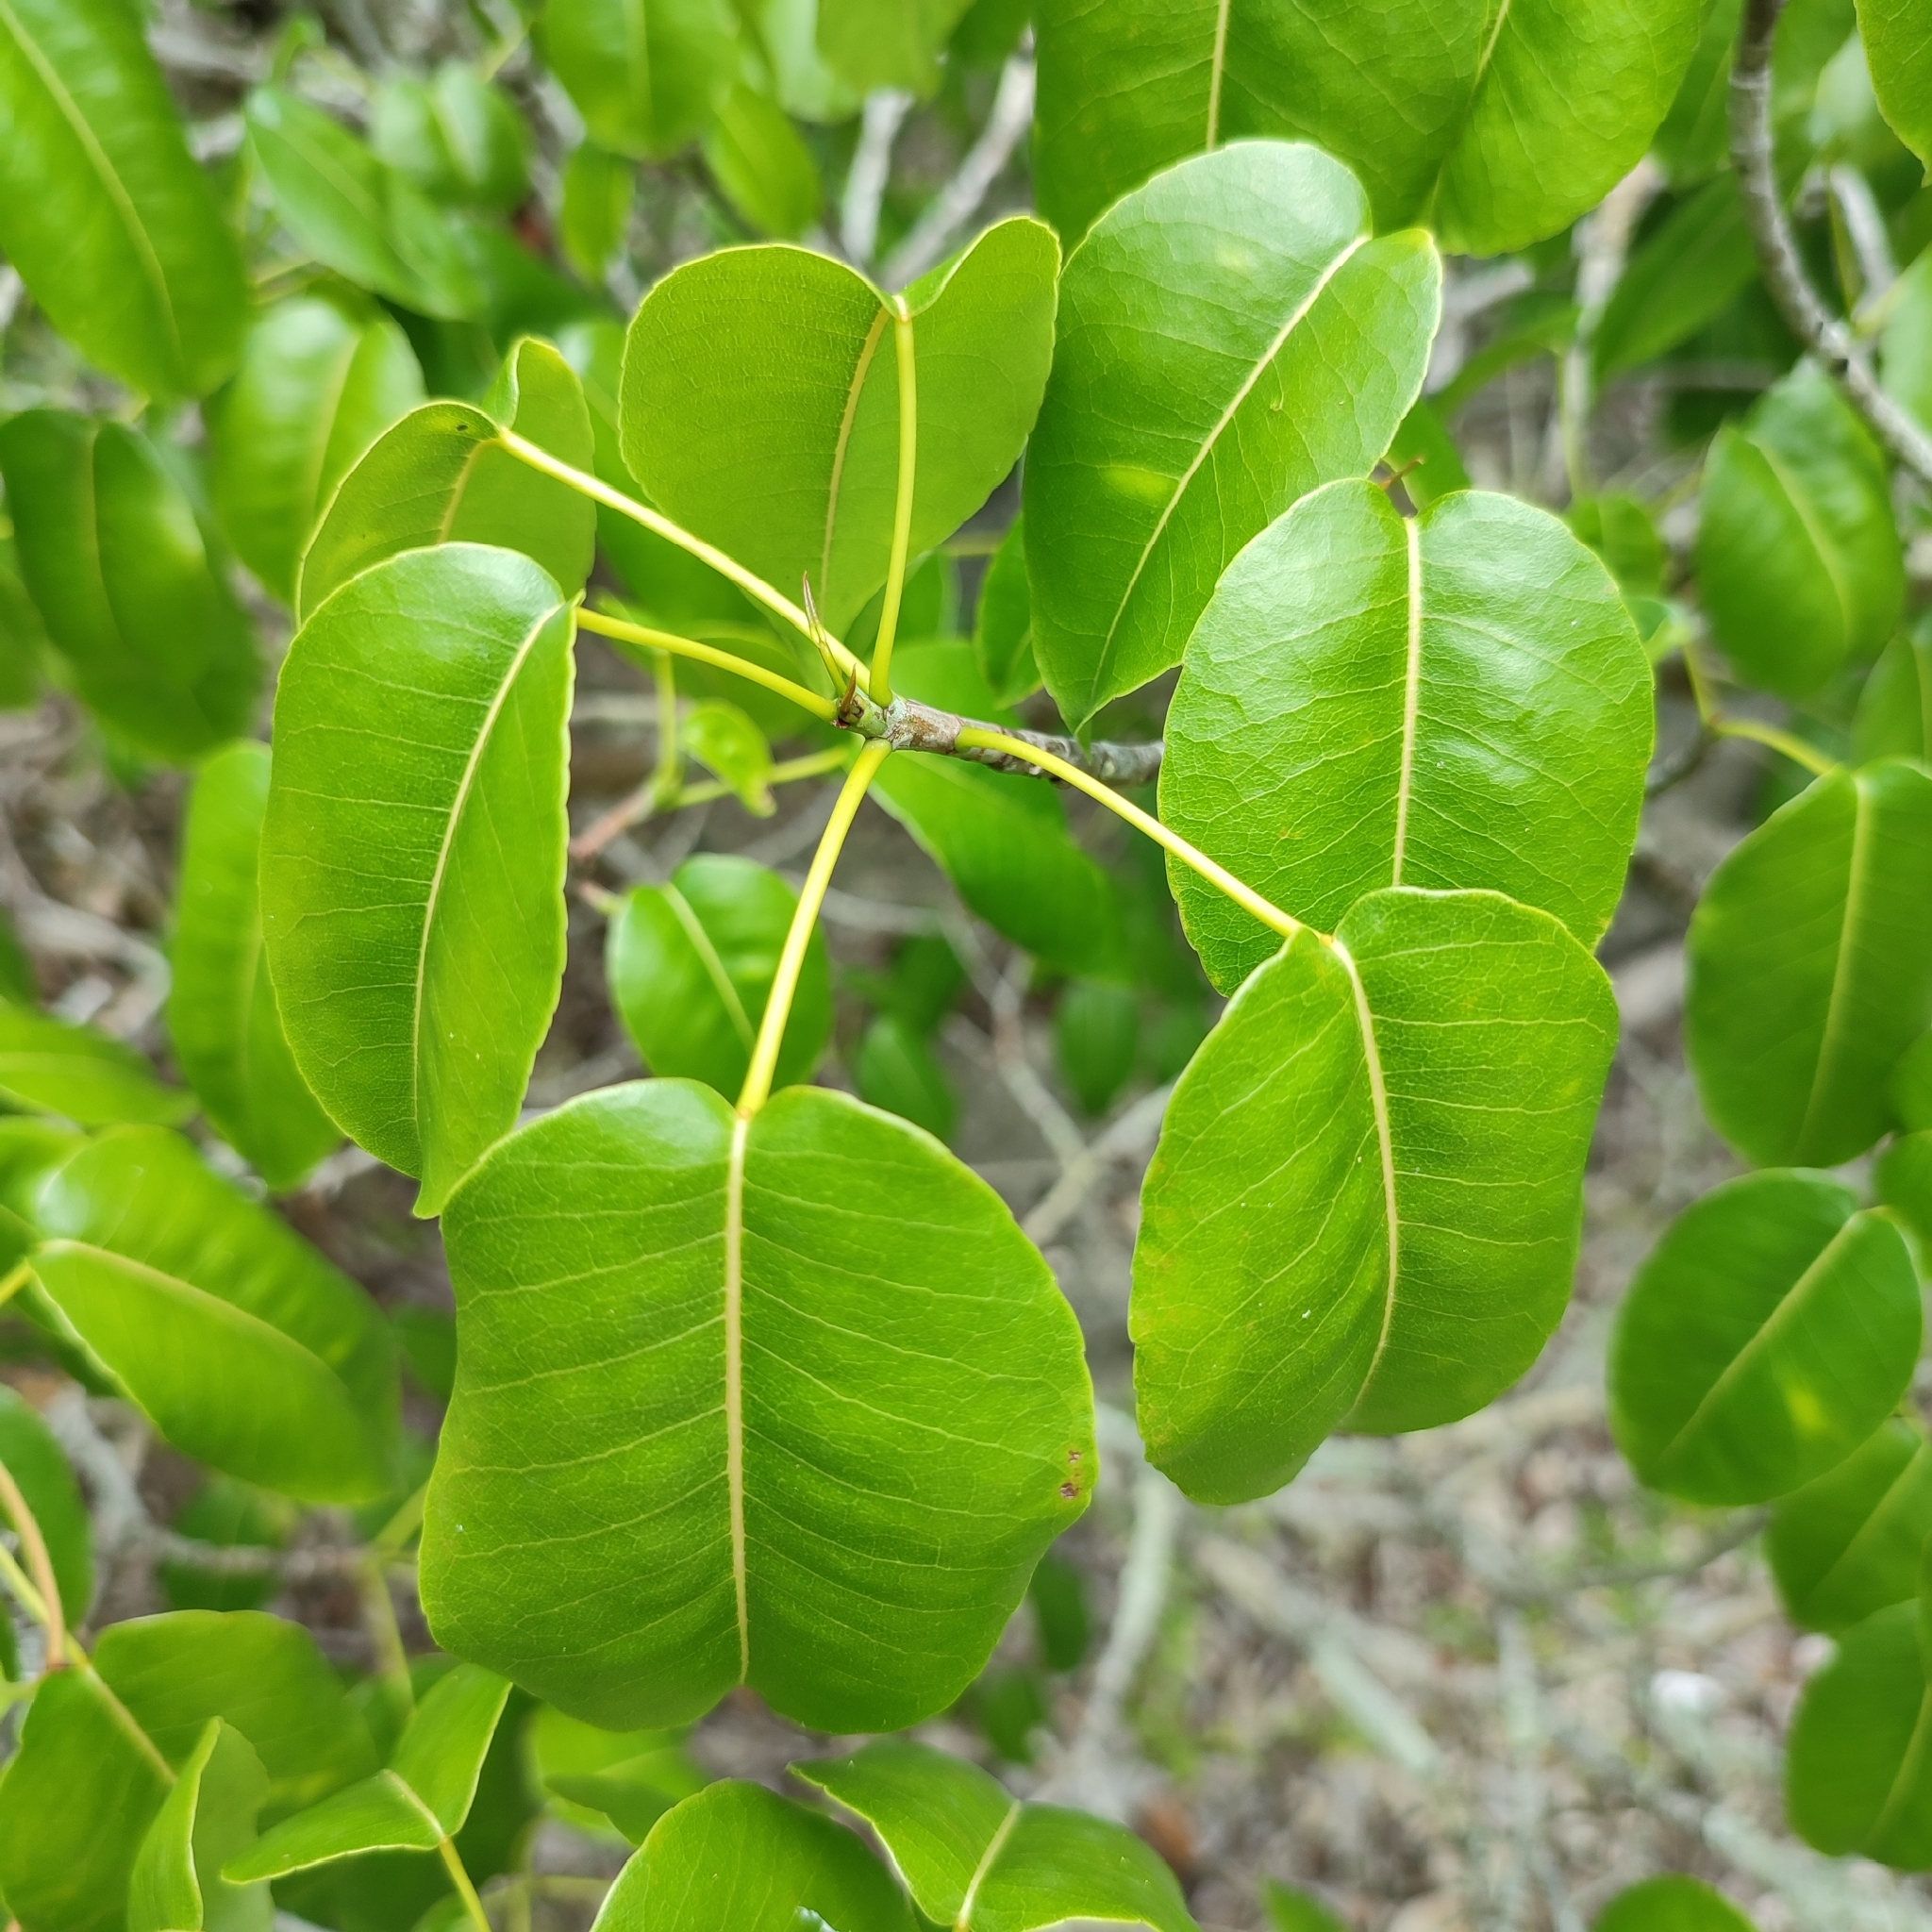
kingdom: Plantae
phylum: Tracheophyta
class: Magnoliopsida
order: Malpighiales
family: Euphorbiaceae
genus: Hippomane
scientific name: Hippomane mancinella
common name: Manchineel
